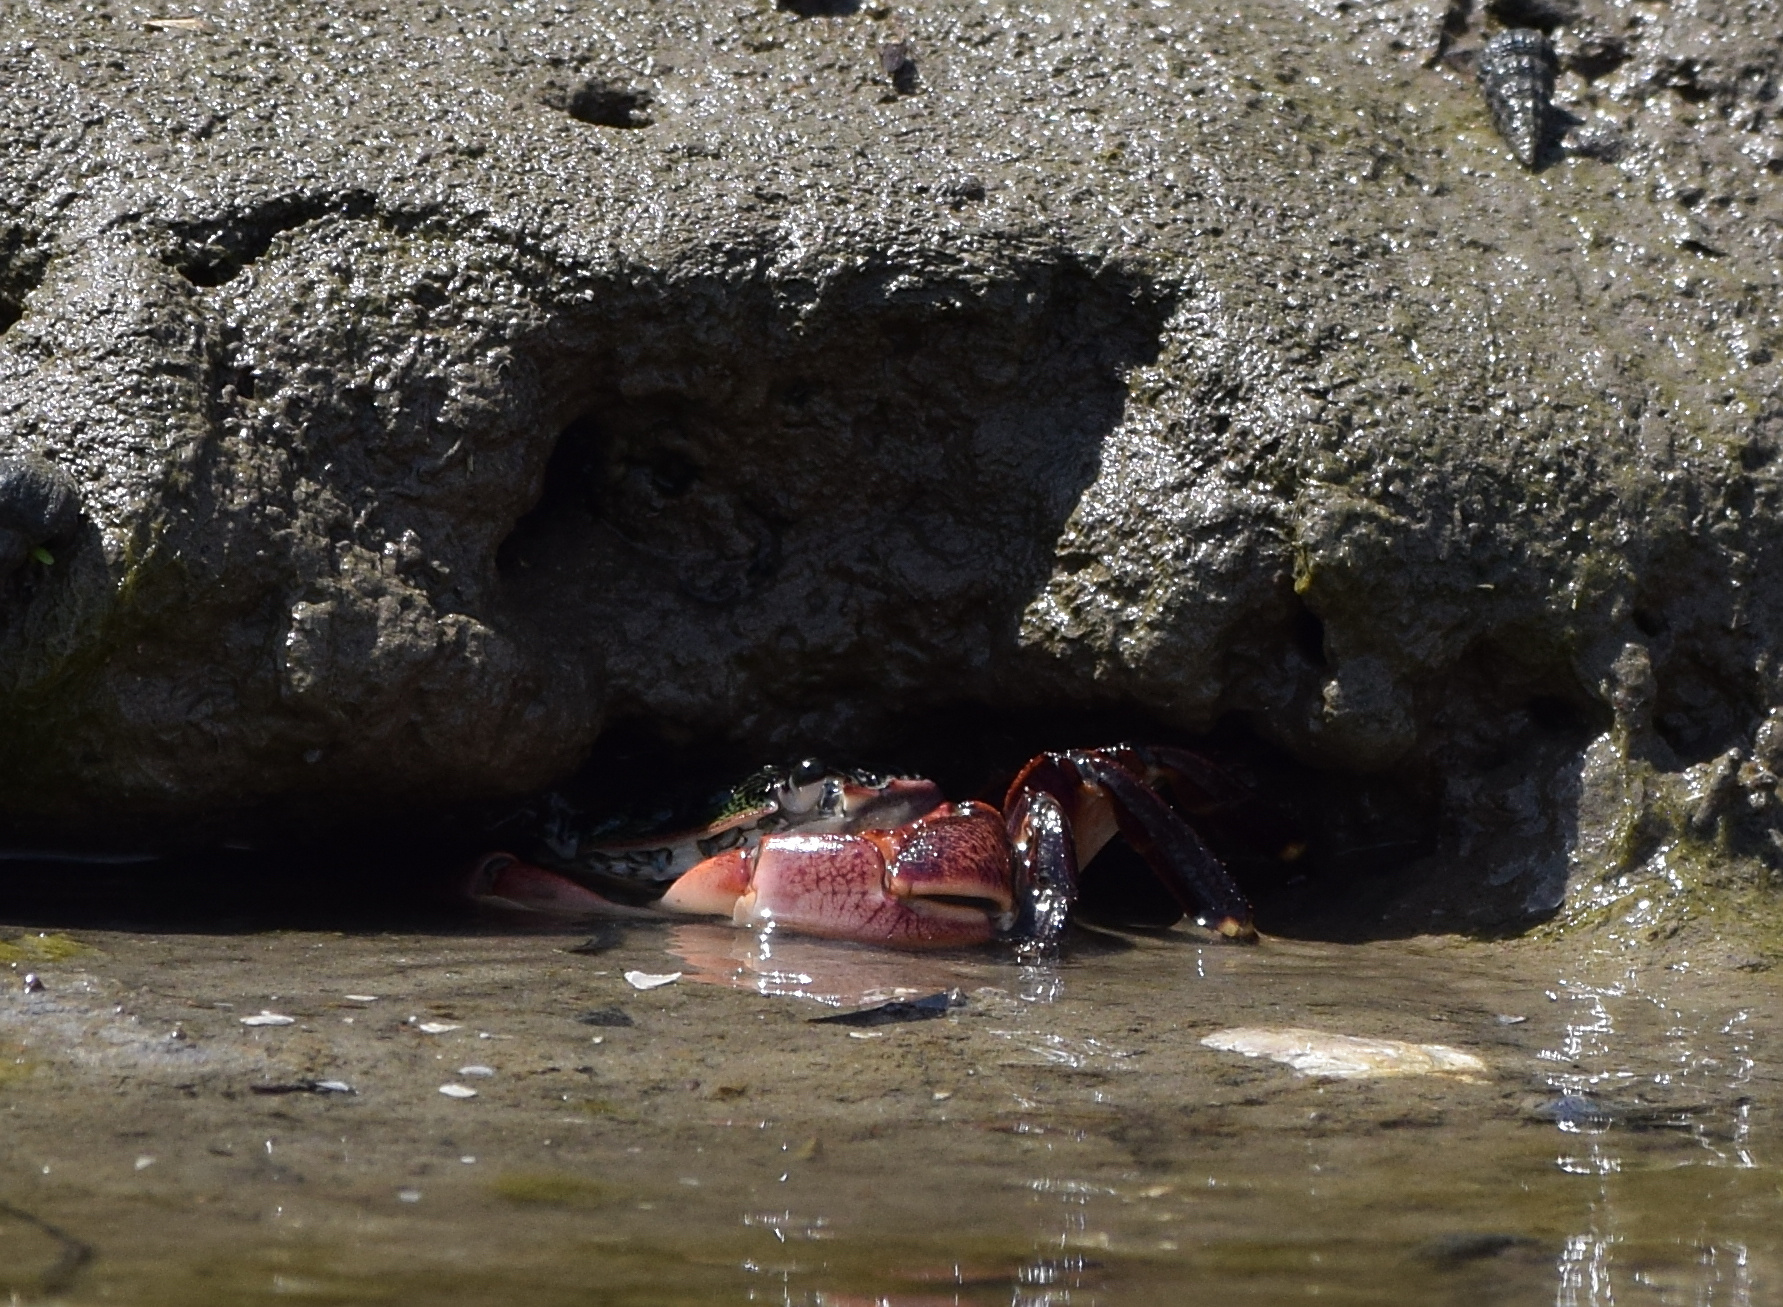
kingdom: Animalia
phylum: Arthropoda
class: Malacostraca
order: Decapoda
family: Grapsidae
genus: Pachygrapsus
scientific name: Pachygrapsus crassipes
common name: Striped shore crab
